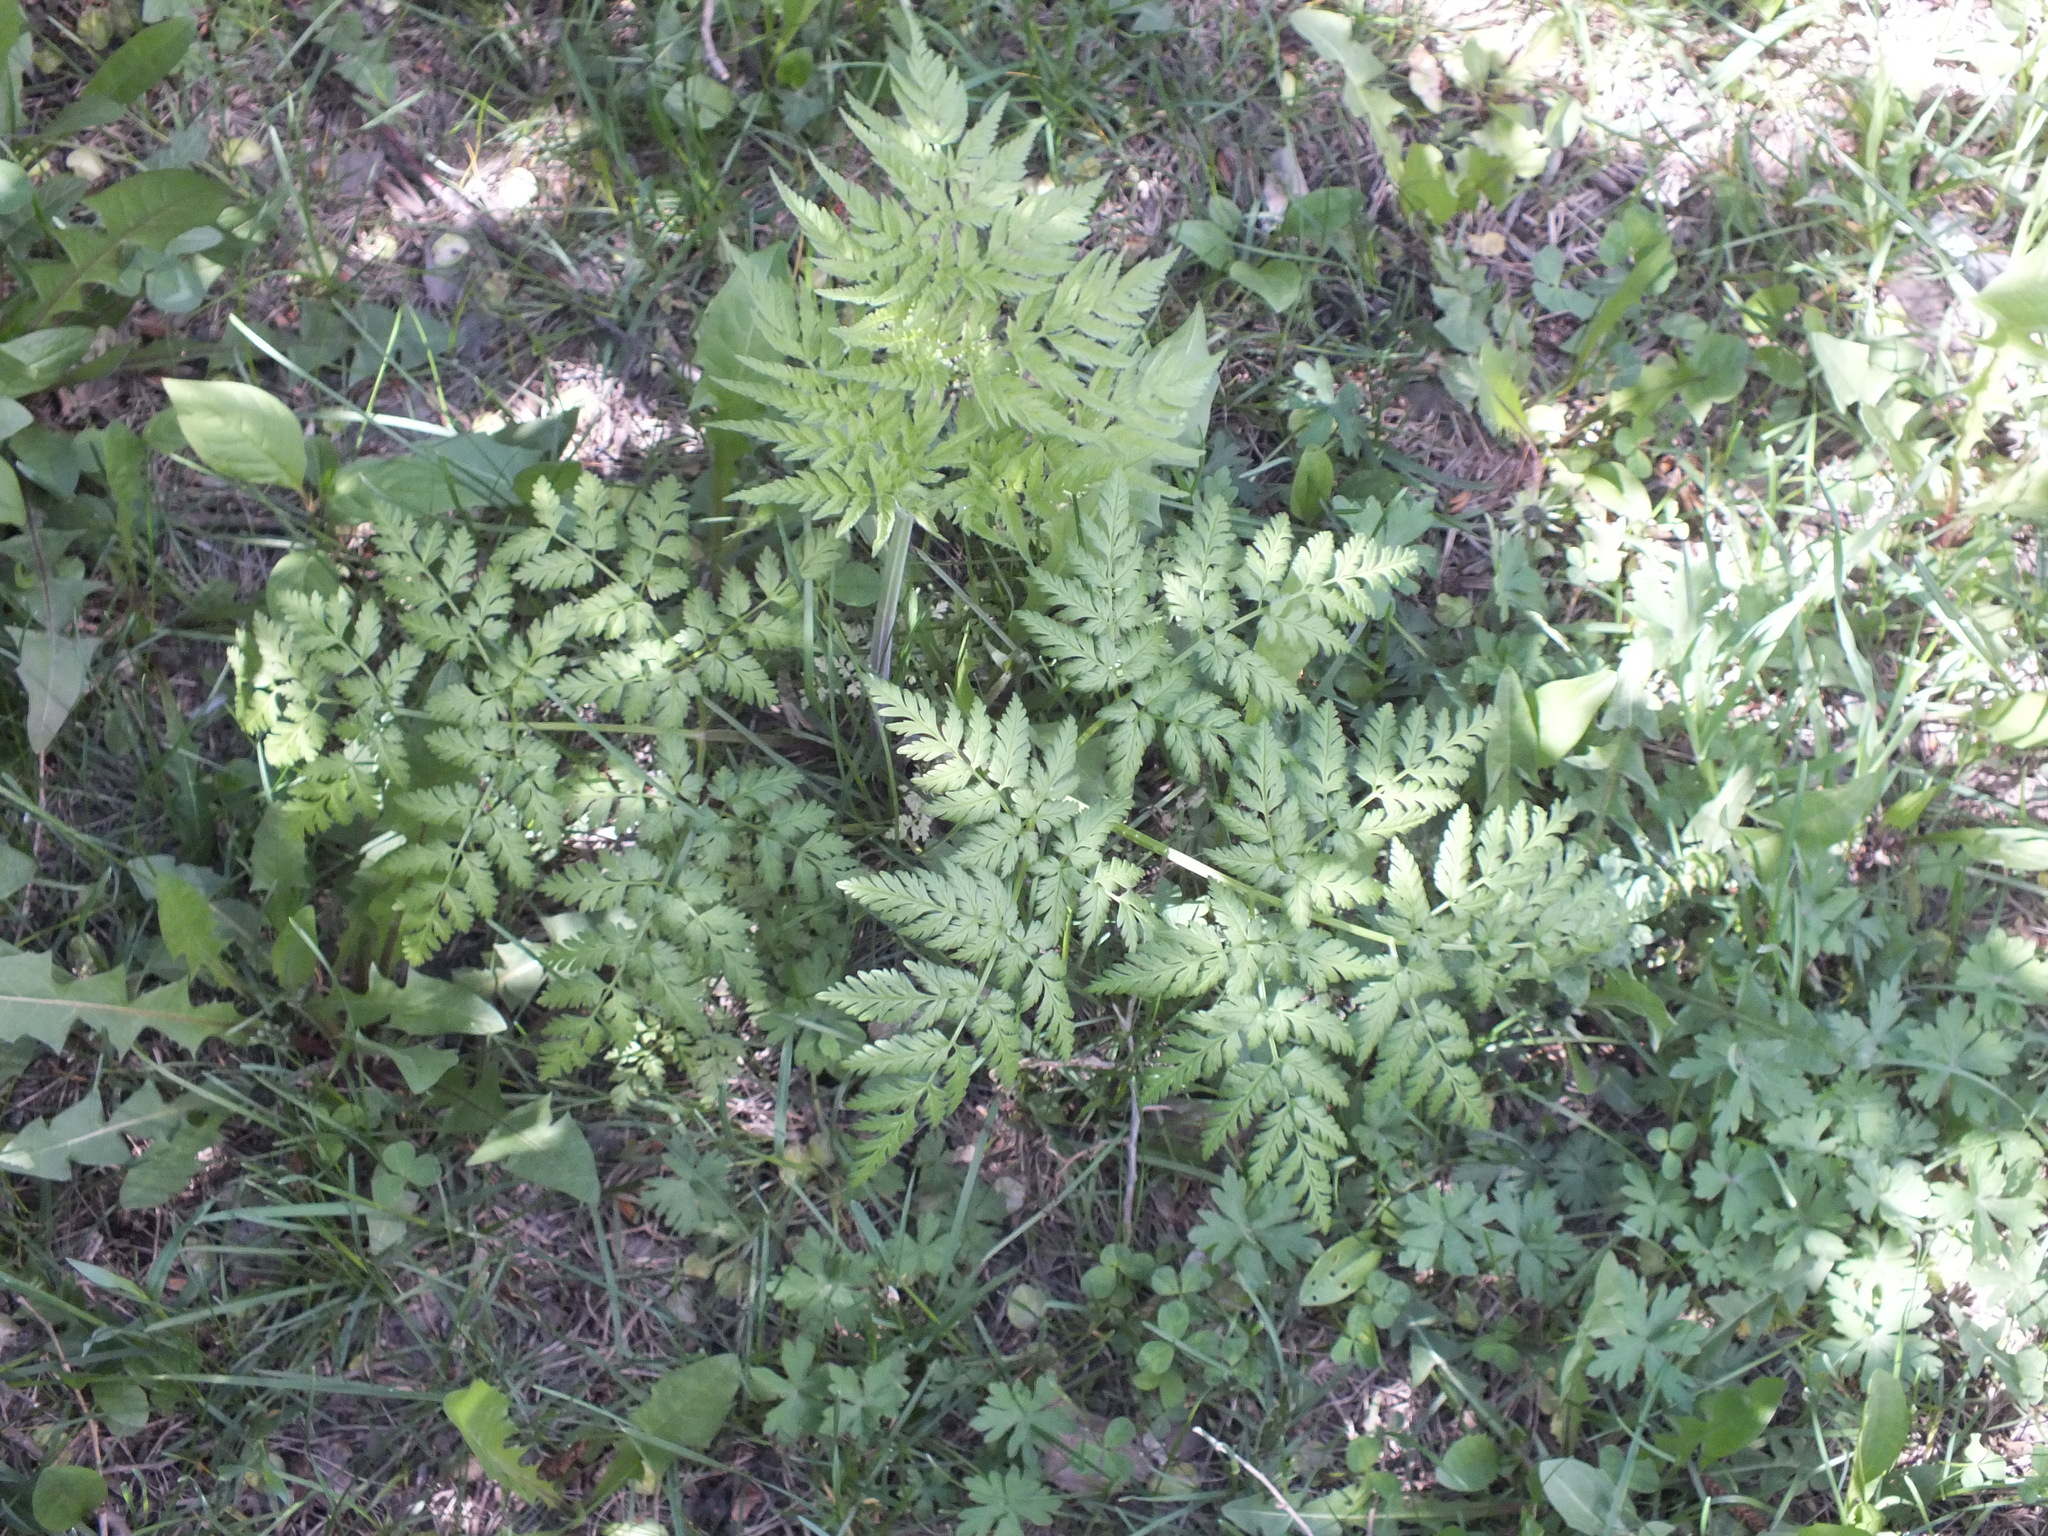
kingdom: Plantae
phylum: Tracheophyta
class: Magnoliopsida
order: Apiales
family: Apiaceae
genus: Anthriscus
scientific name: Anthriscus sylvestris
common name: Cow parsley
